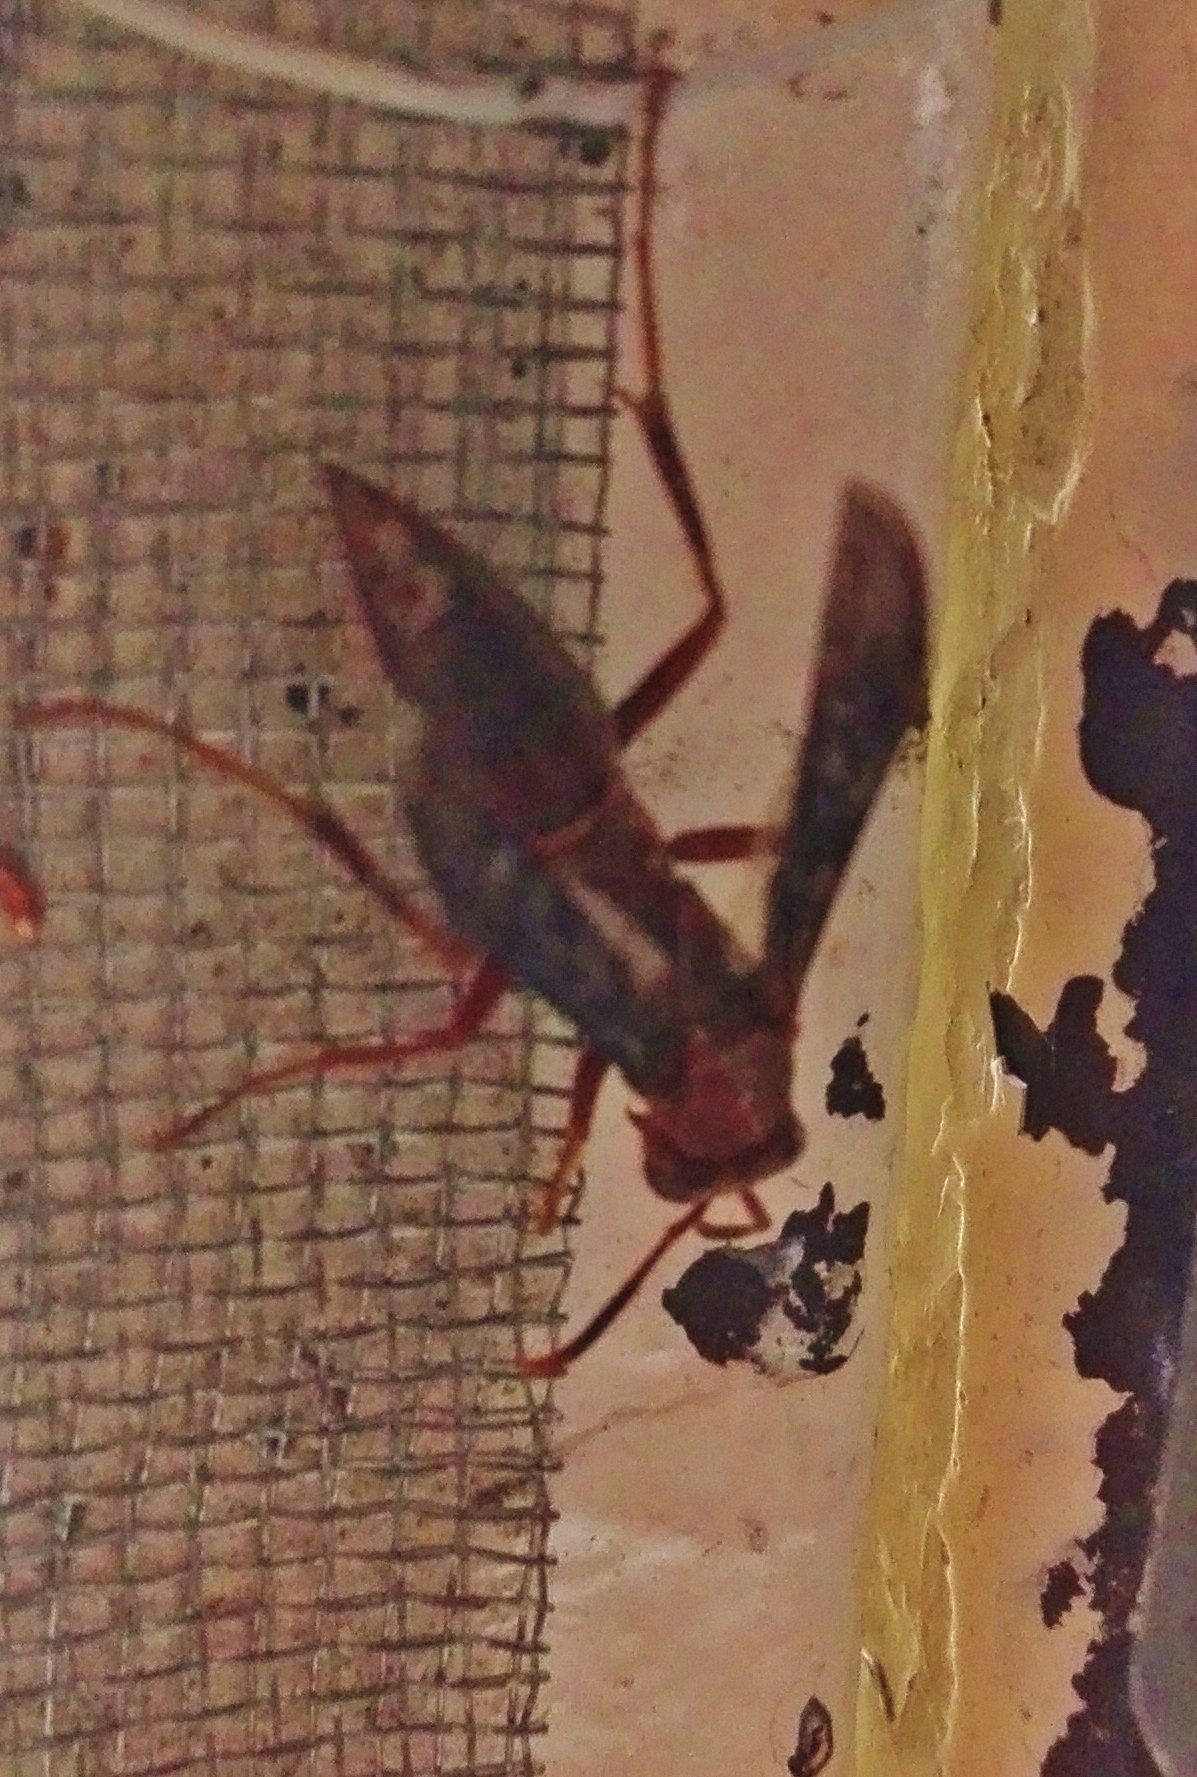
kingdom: Animalia
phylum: Arthropoda
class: Insecta
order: Hymenoptera
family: Eumenidae
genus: Polistes
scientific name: Polistes veracrucis
